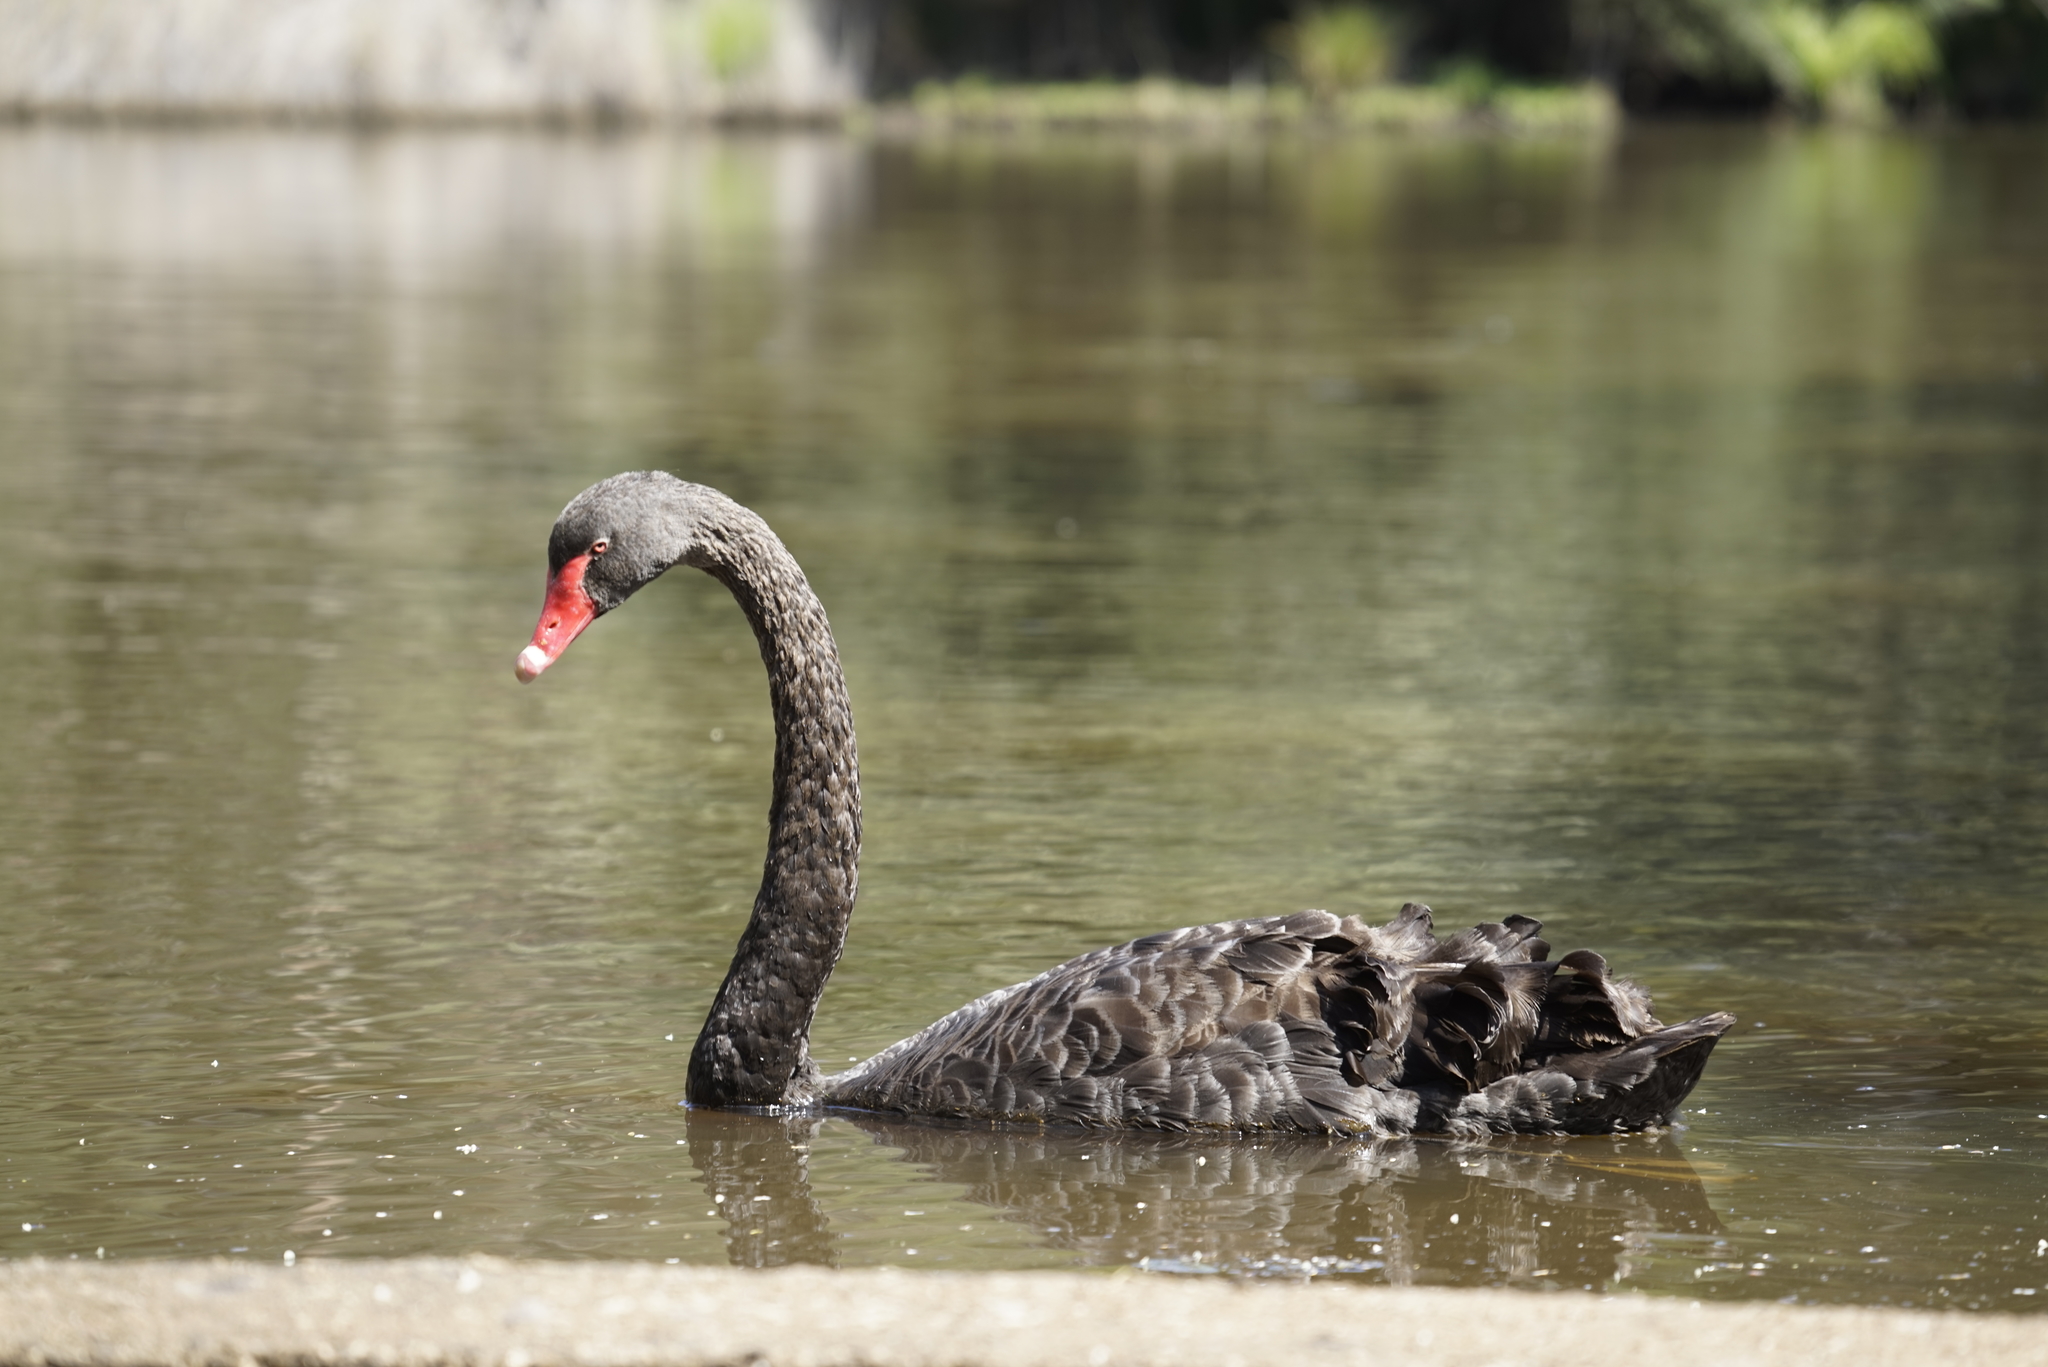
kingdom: Animalia
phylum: Chordata
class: Aves
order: Anseriformes
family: Anatidae
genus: Cygnus
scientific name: Cygnus atratus
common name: Black swan
